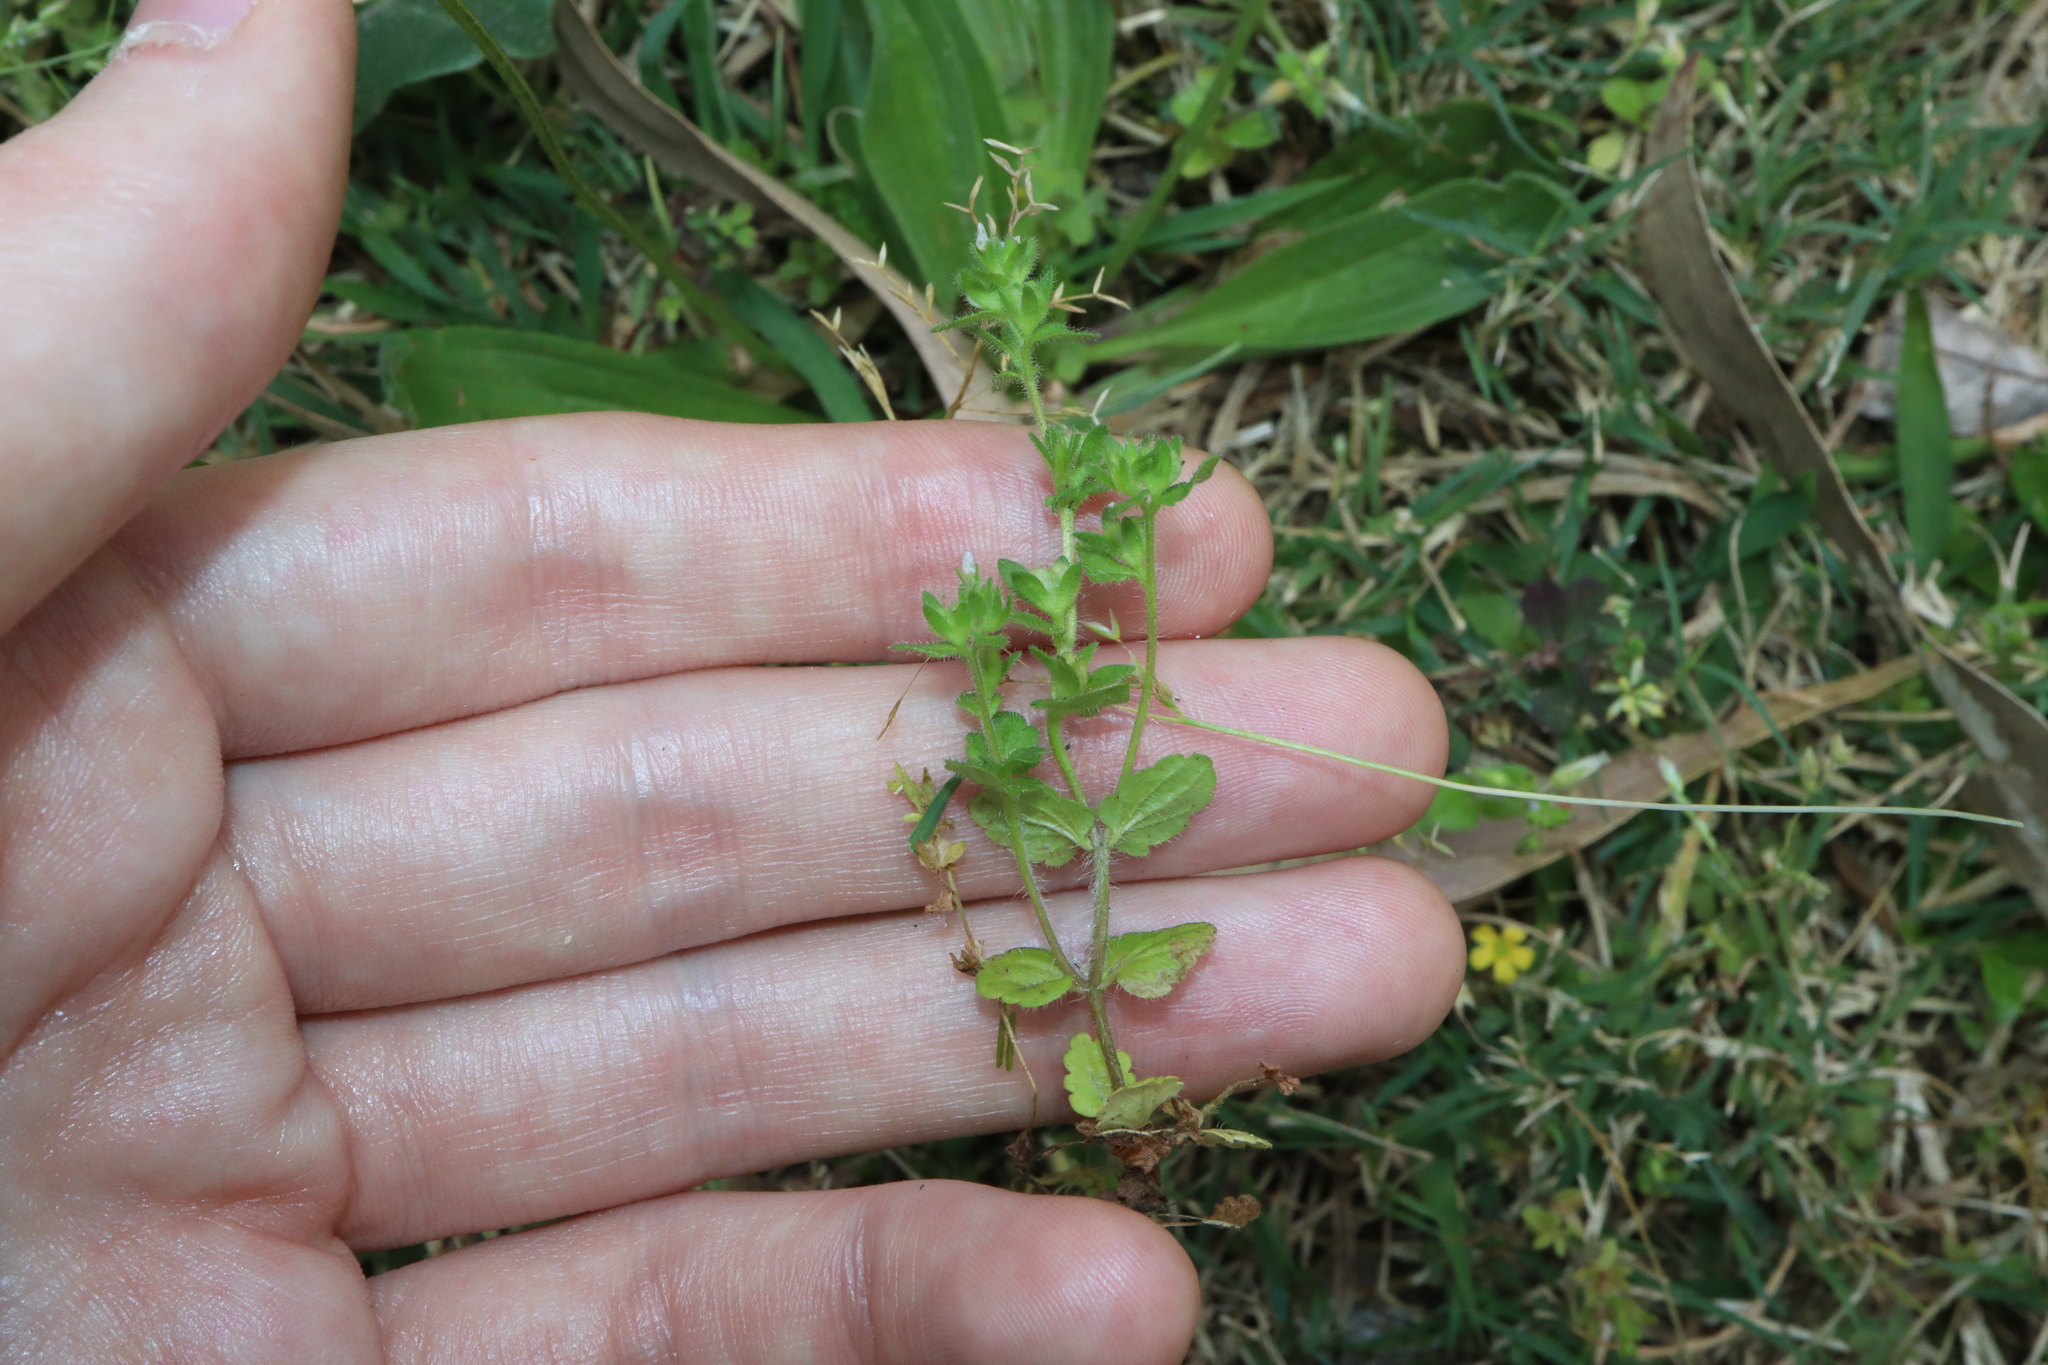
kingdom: Plantae
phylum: Tracheophyta
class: Magnoliopsida
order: Lamiales
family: Plantaginaceae
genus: Veronica
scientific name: Veronica arvensis
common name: Corn speedwell
